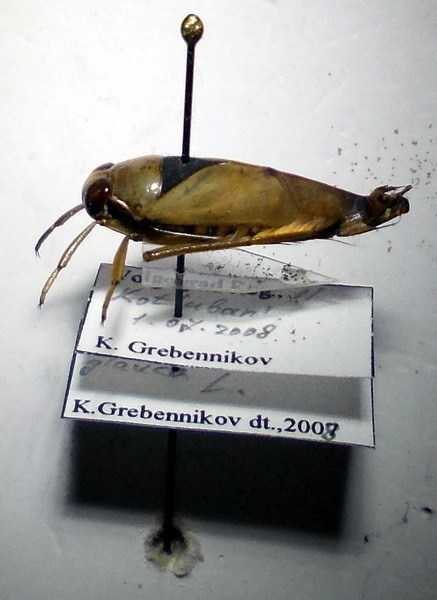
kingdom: Animalia
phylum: Arthropoda
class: Insecta
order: Hemiptera
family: Notonectidae
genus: Notonecta
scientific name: Notonecta glauca
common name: Common water-boatman
